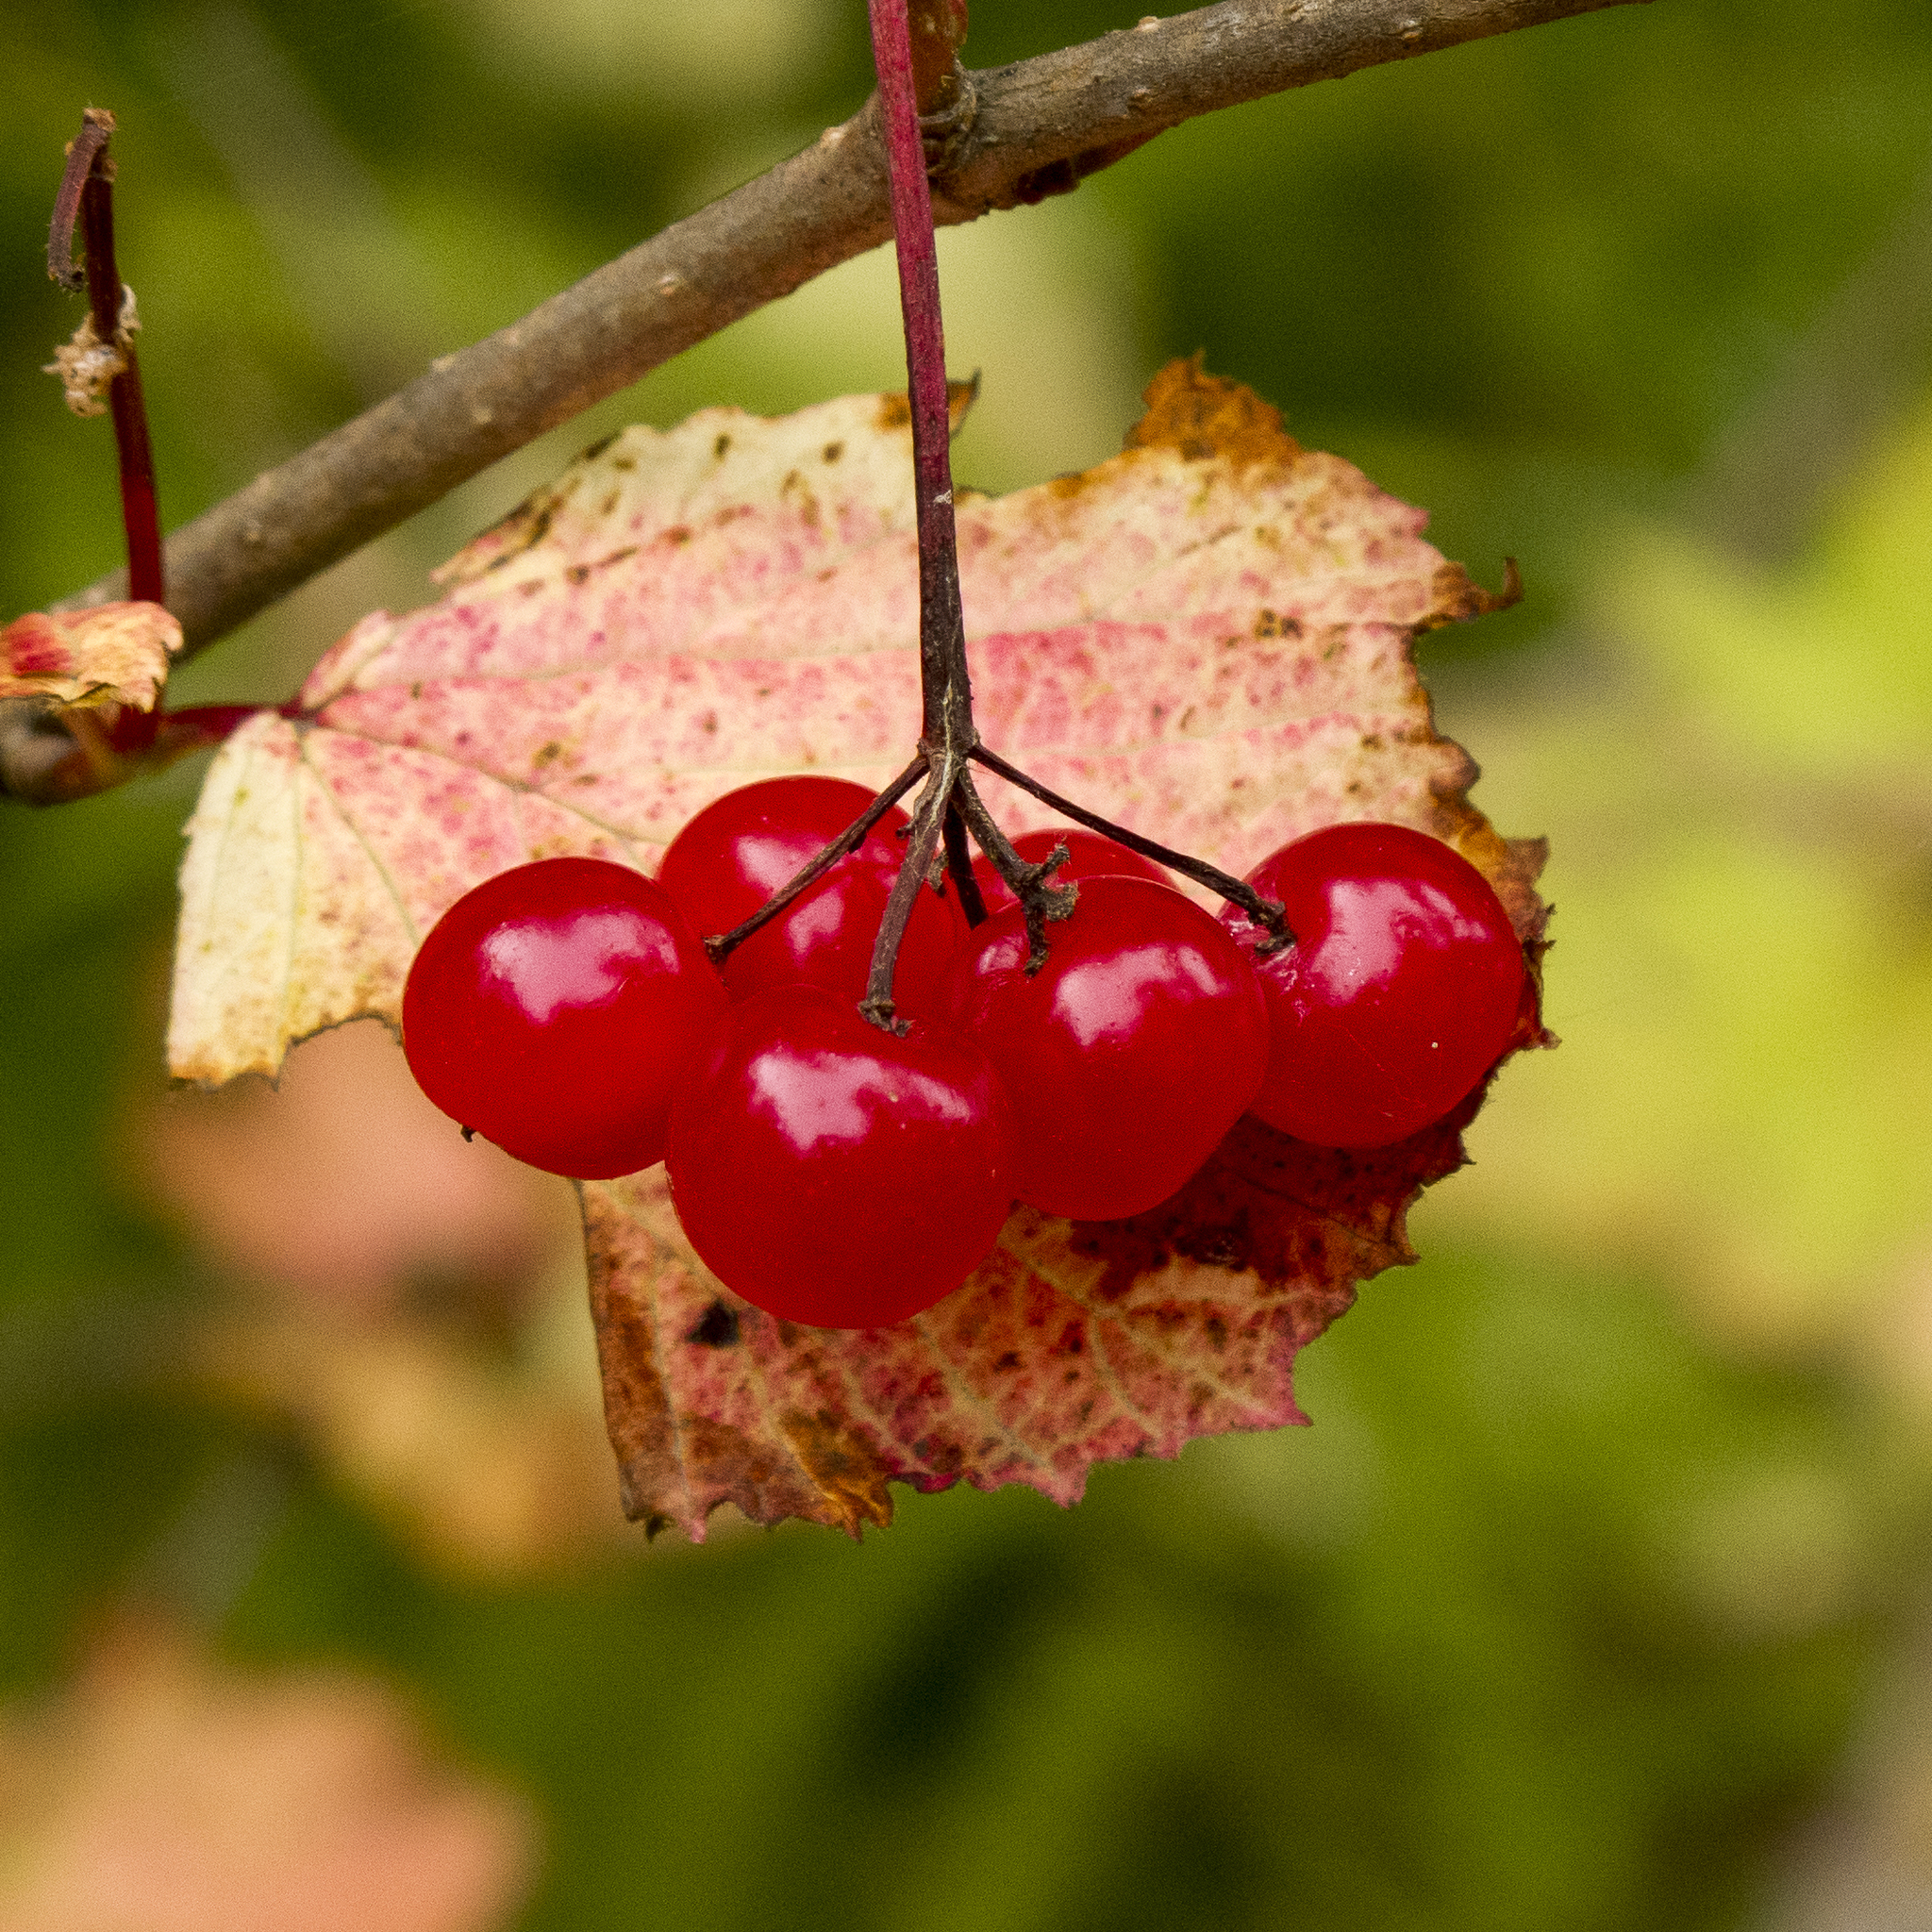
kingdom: Plantae
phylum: Tracheophyta
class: Magnoliopsida
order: Dipsacales
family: Viburnaceae
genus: Viburnum
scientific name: Viburnum edule
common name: Mooseberry
